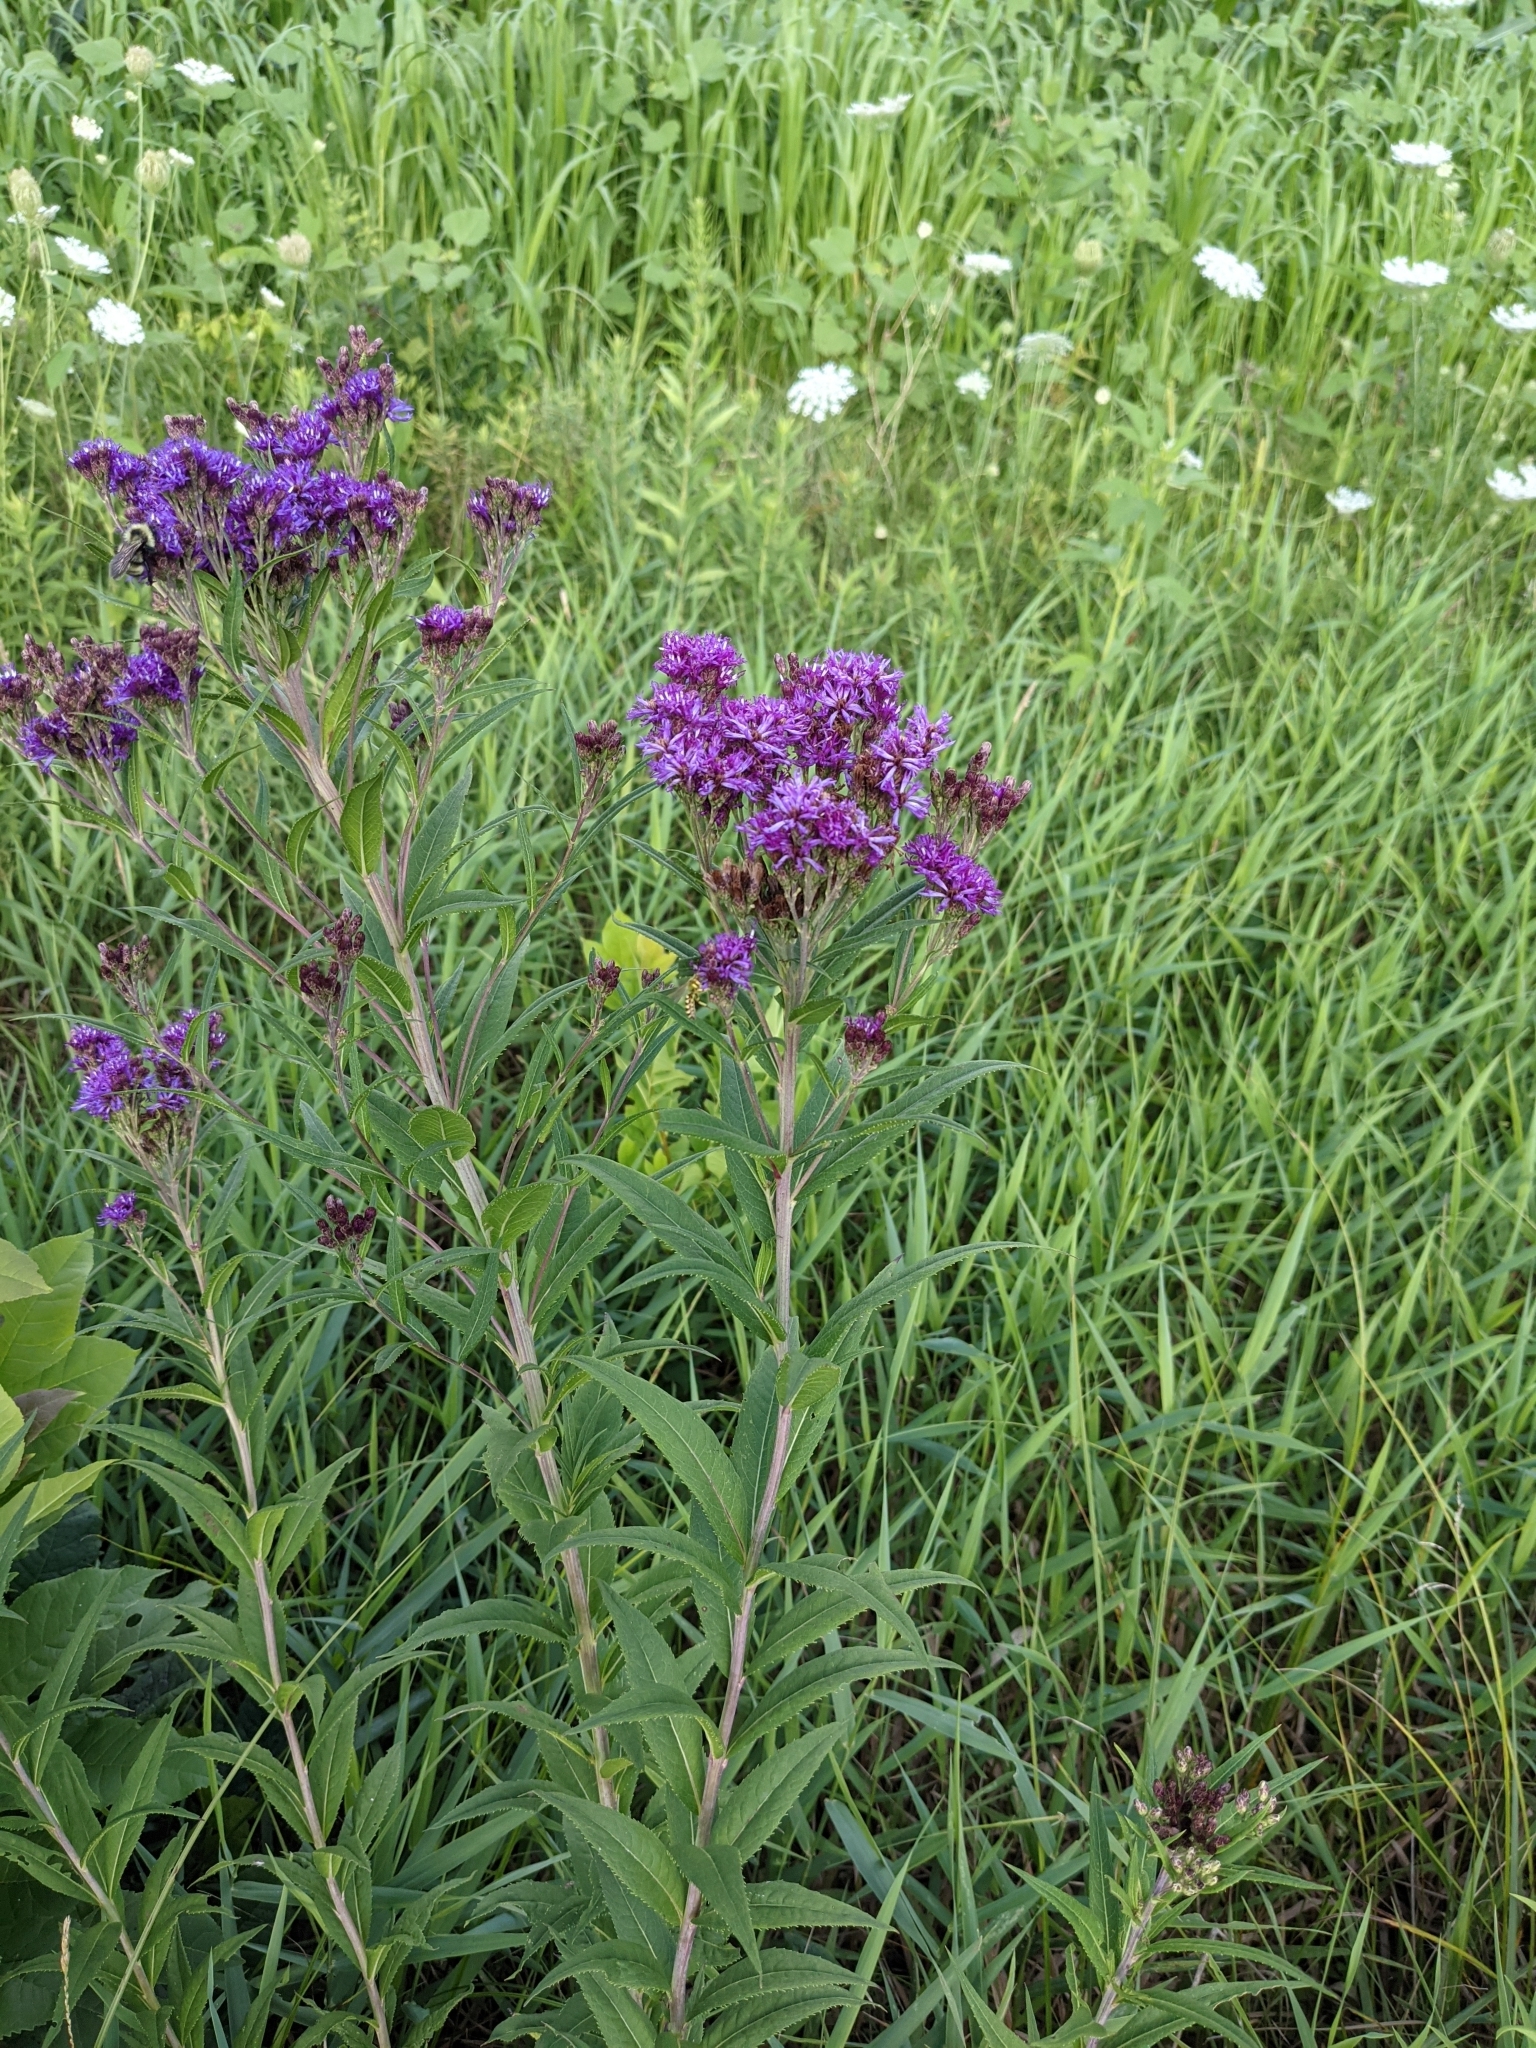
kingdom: Plantae
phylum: Tracheophyta
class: Magnoliopsida
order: Asterales
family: Asteraceae
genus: Vernonia
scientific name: Vernonia fasciculata
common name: Fascicled ironweed
